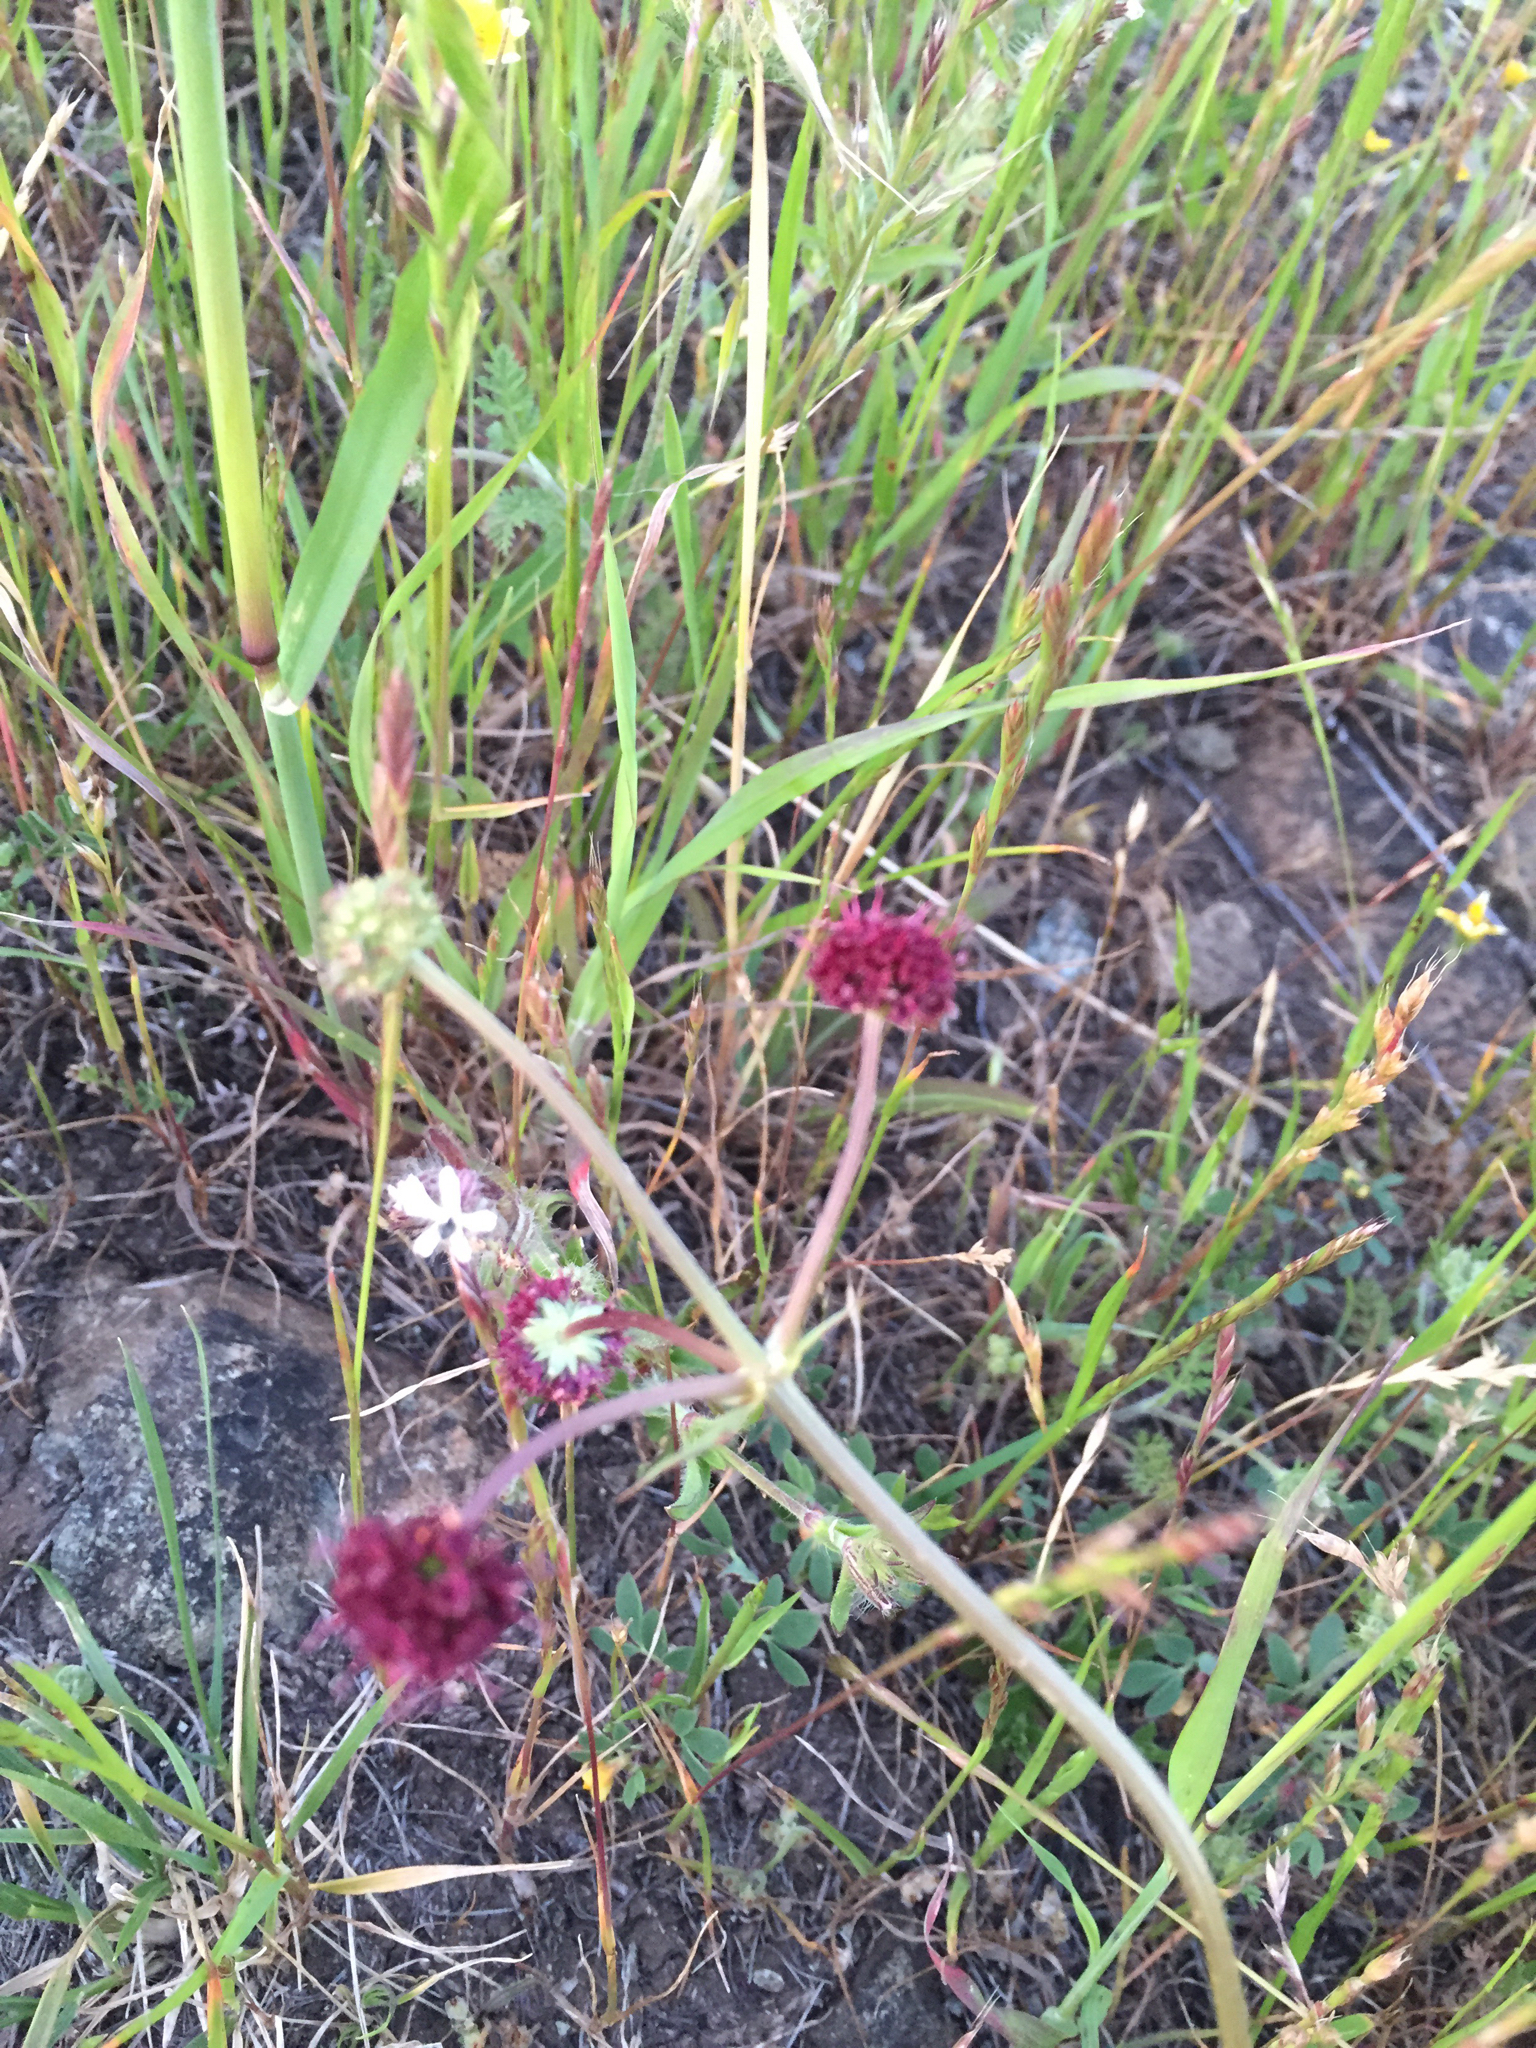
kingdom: Plantae
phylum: Tracheophyta
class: Magnoliopsida
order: Apiales
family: Apiaceae
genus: Sanicula
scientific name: Sanicula bipinnatifida
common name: Shoe-buttons
